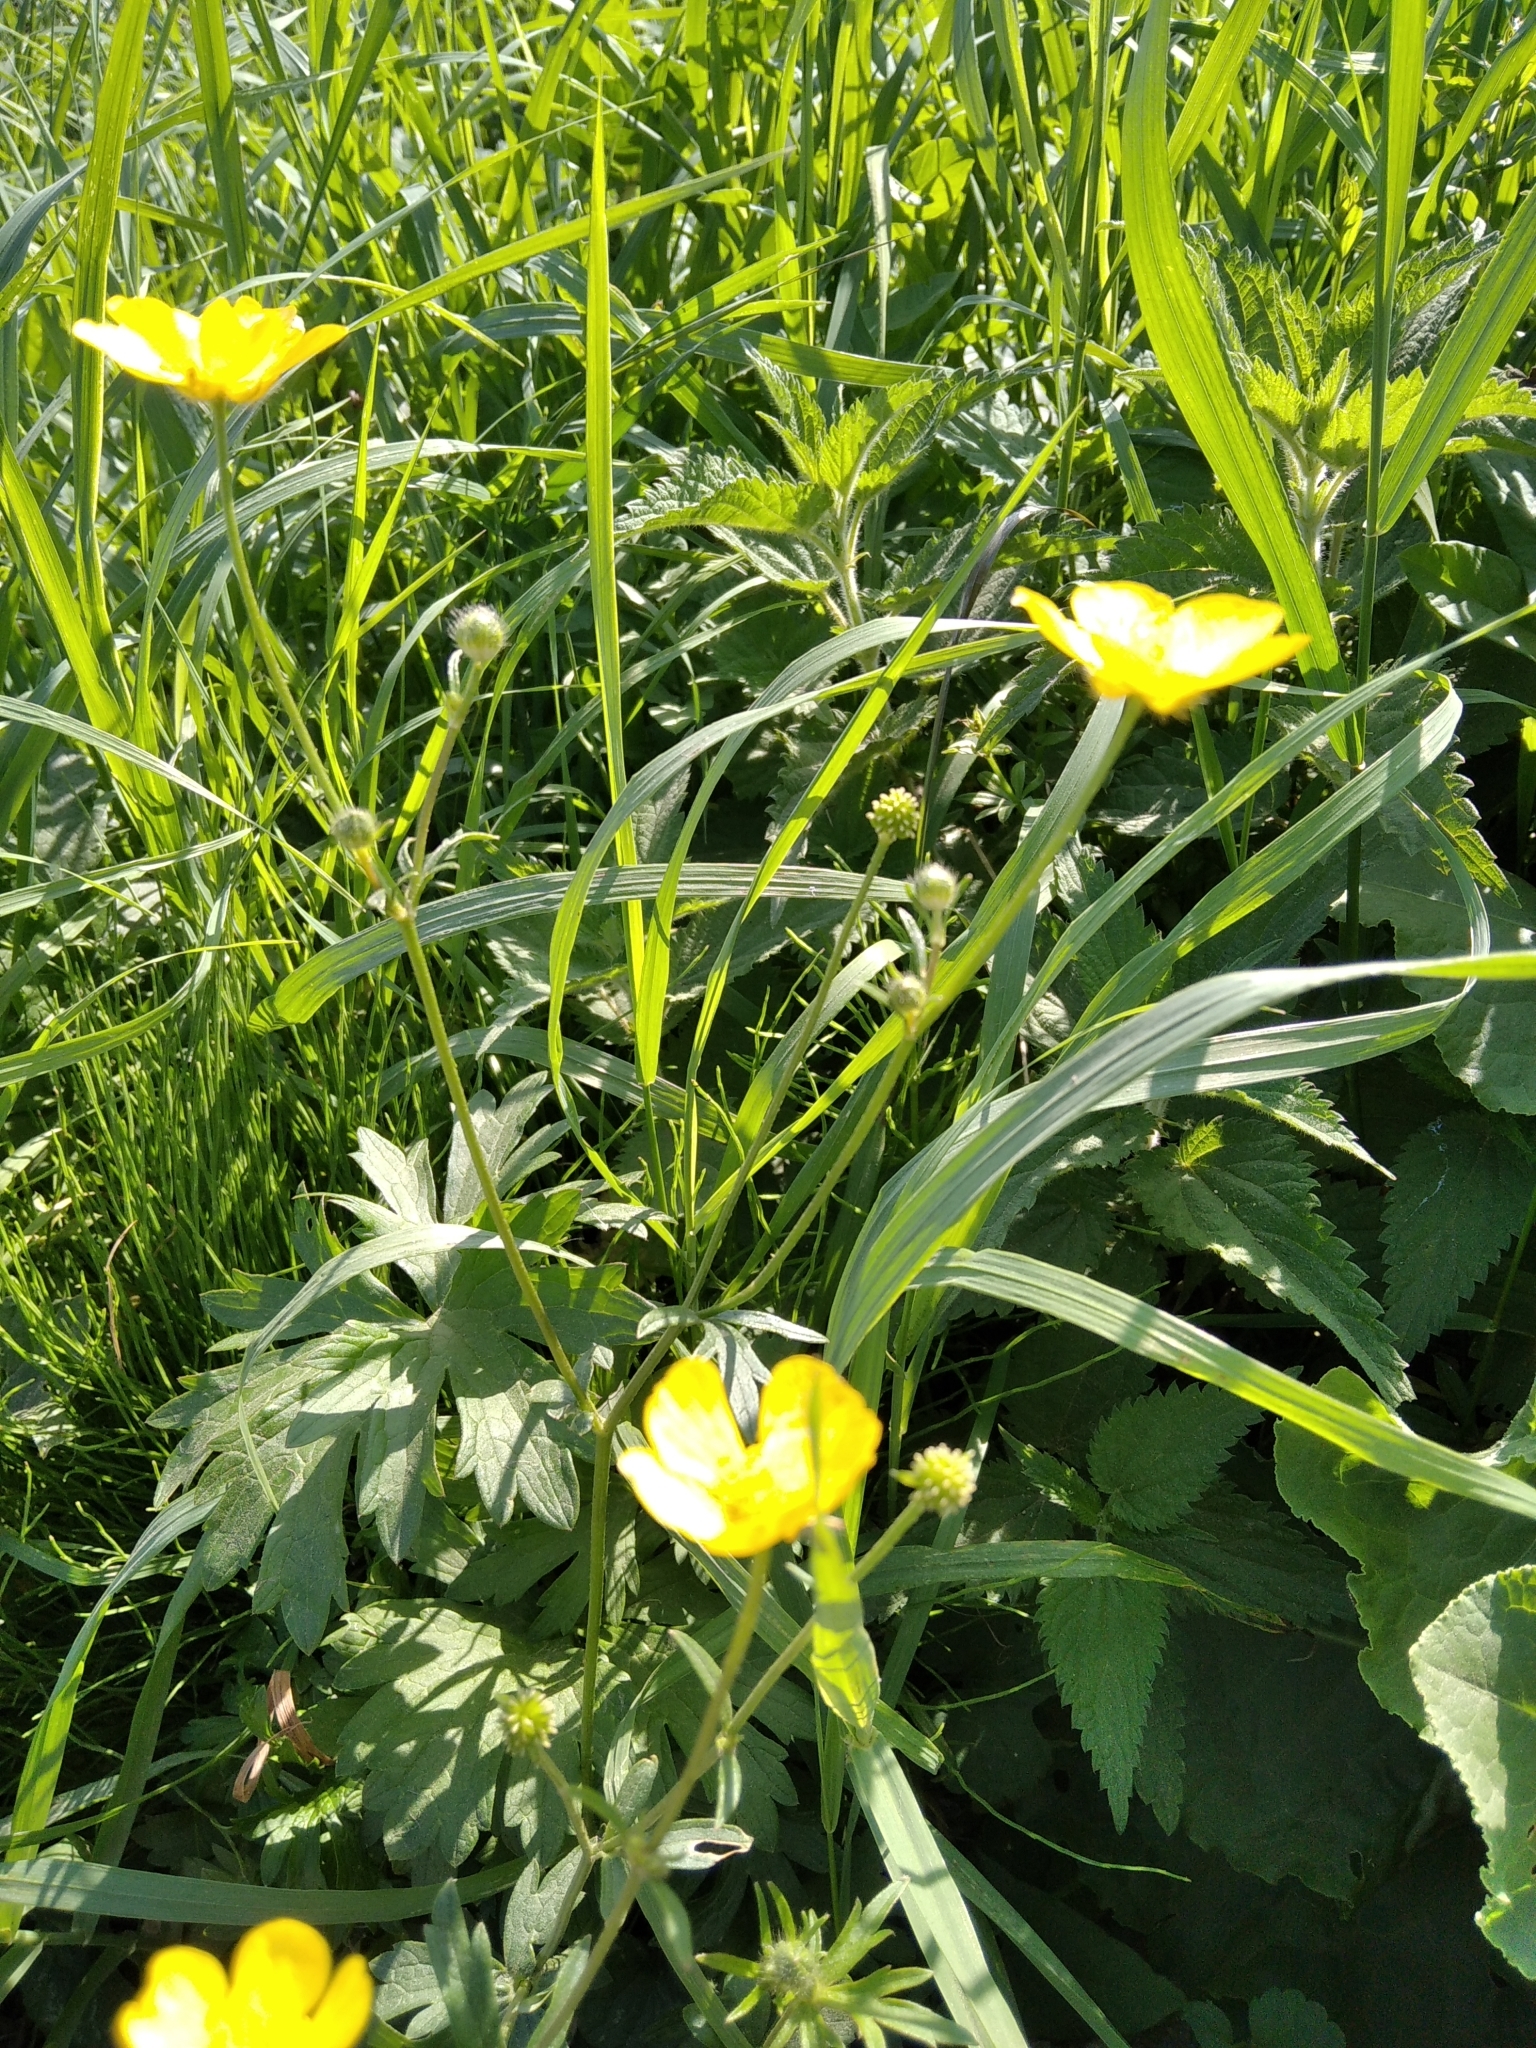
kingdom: Plantae
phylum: Tracheophyta
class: Magnoliopsida
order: Ranunculales
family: Ranunculaceae
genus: Ranunculus
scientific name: Ranunculus polyanthemos
